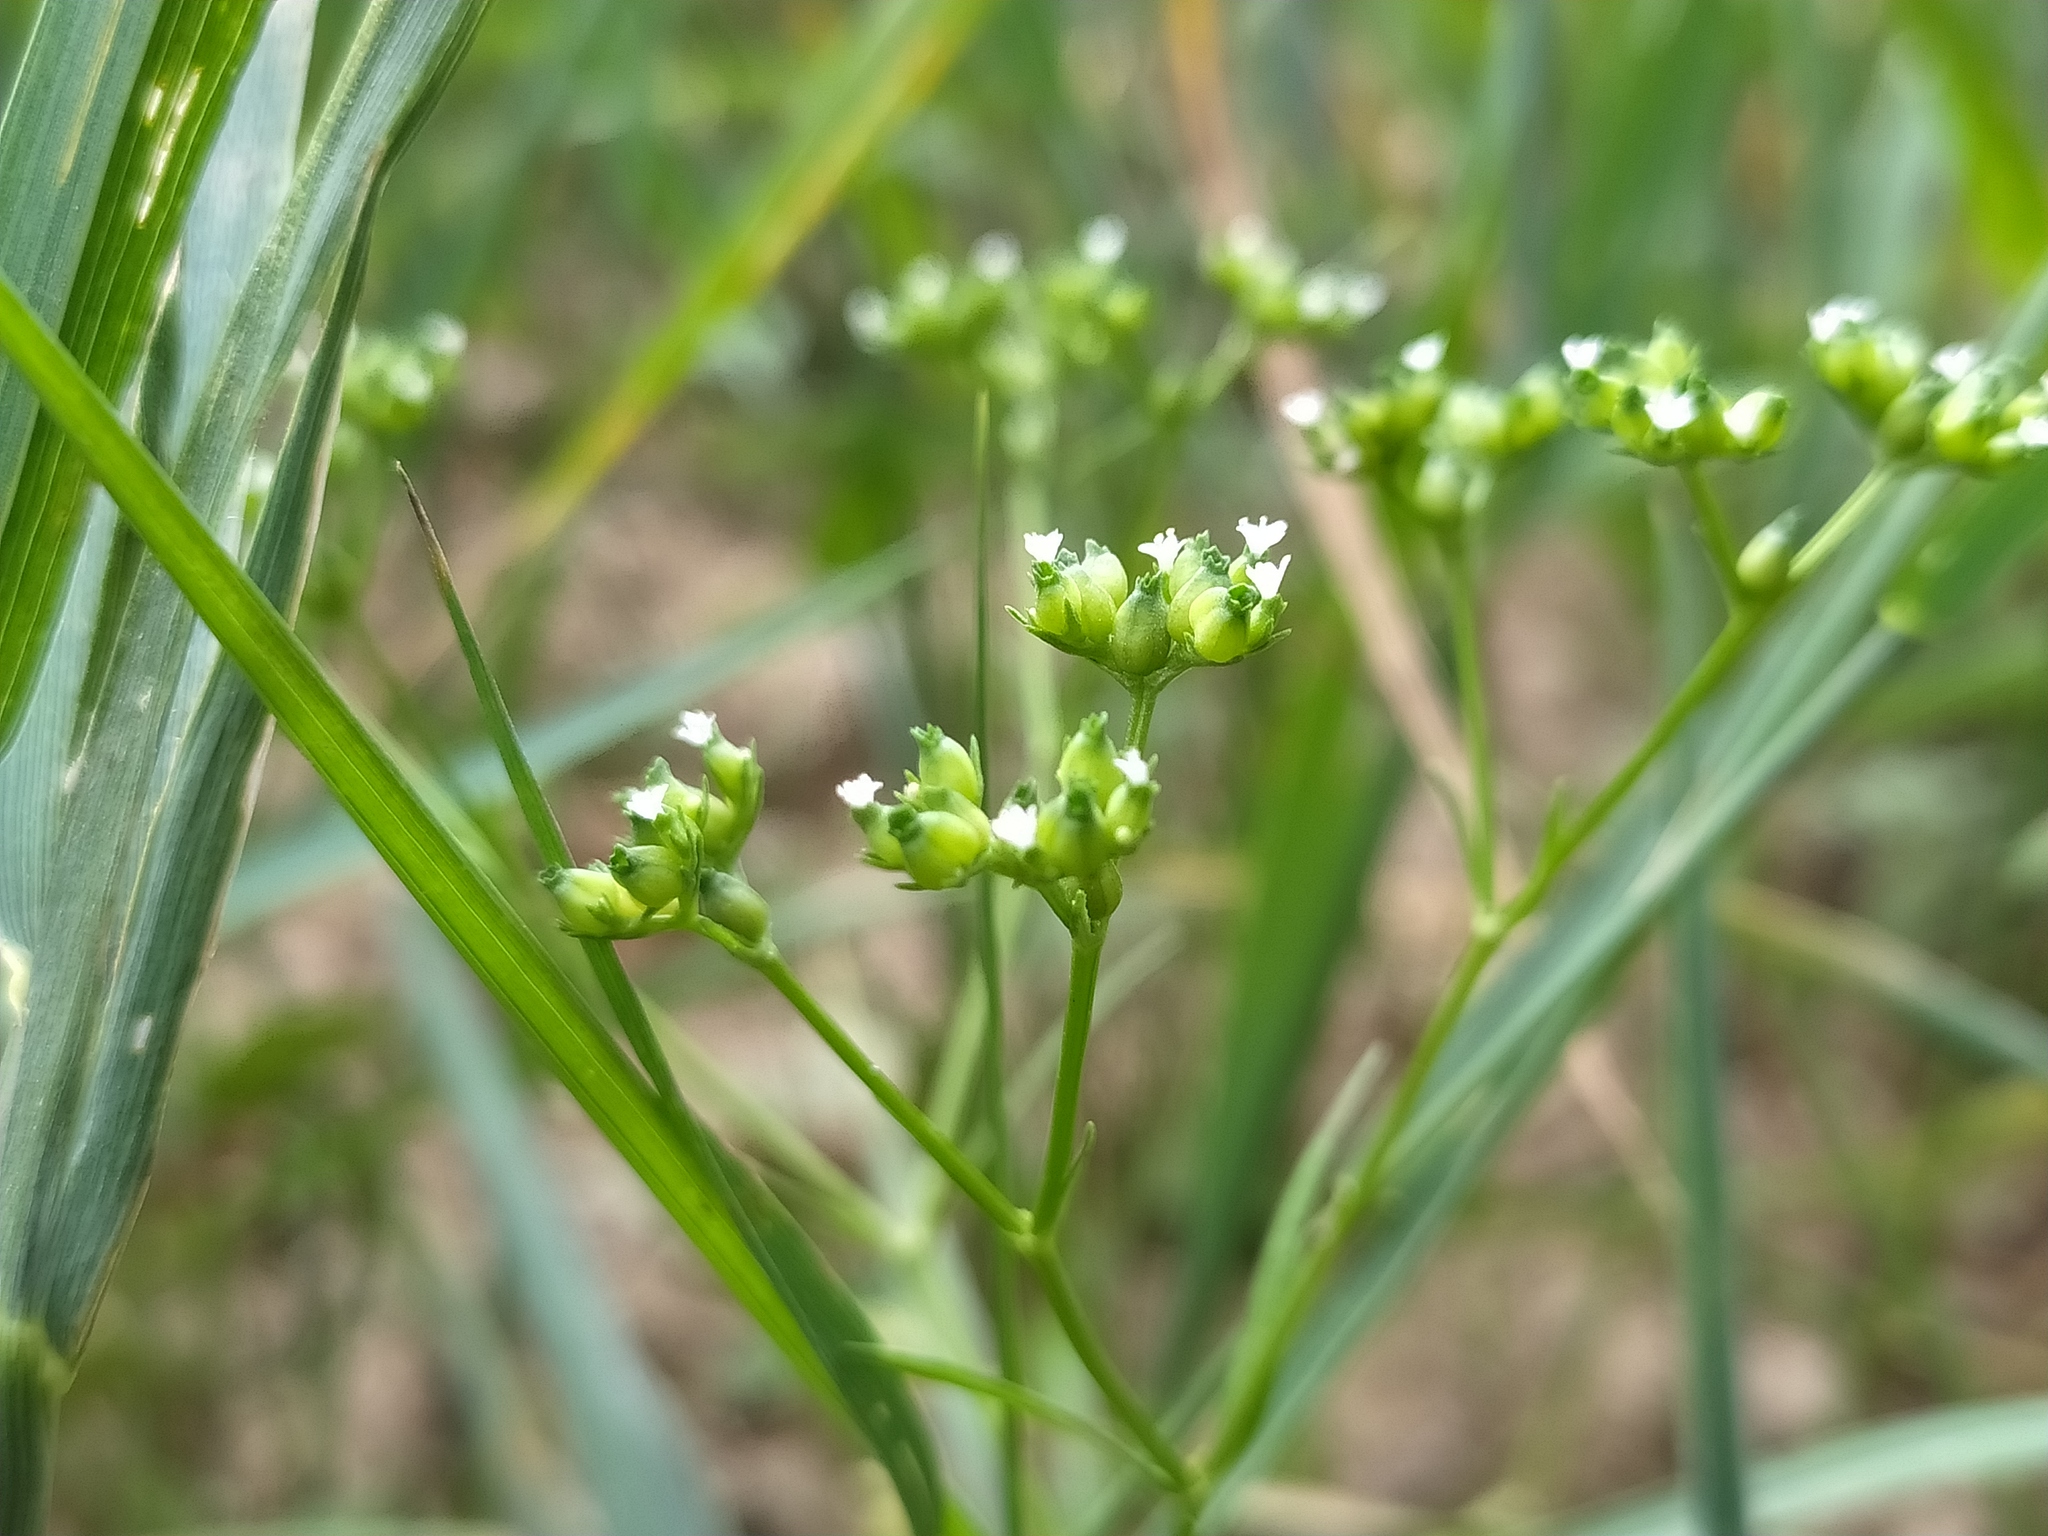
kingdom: Plantae
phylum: Tracheophyta
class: Magnoliopsida
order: Dipsacales
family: Caprifoliaceae
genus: Valerianella
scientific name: Valerianella rimosa
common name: Broad-fruited cornsalad
